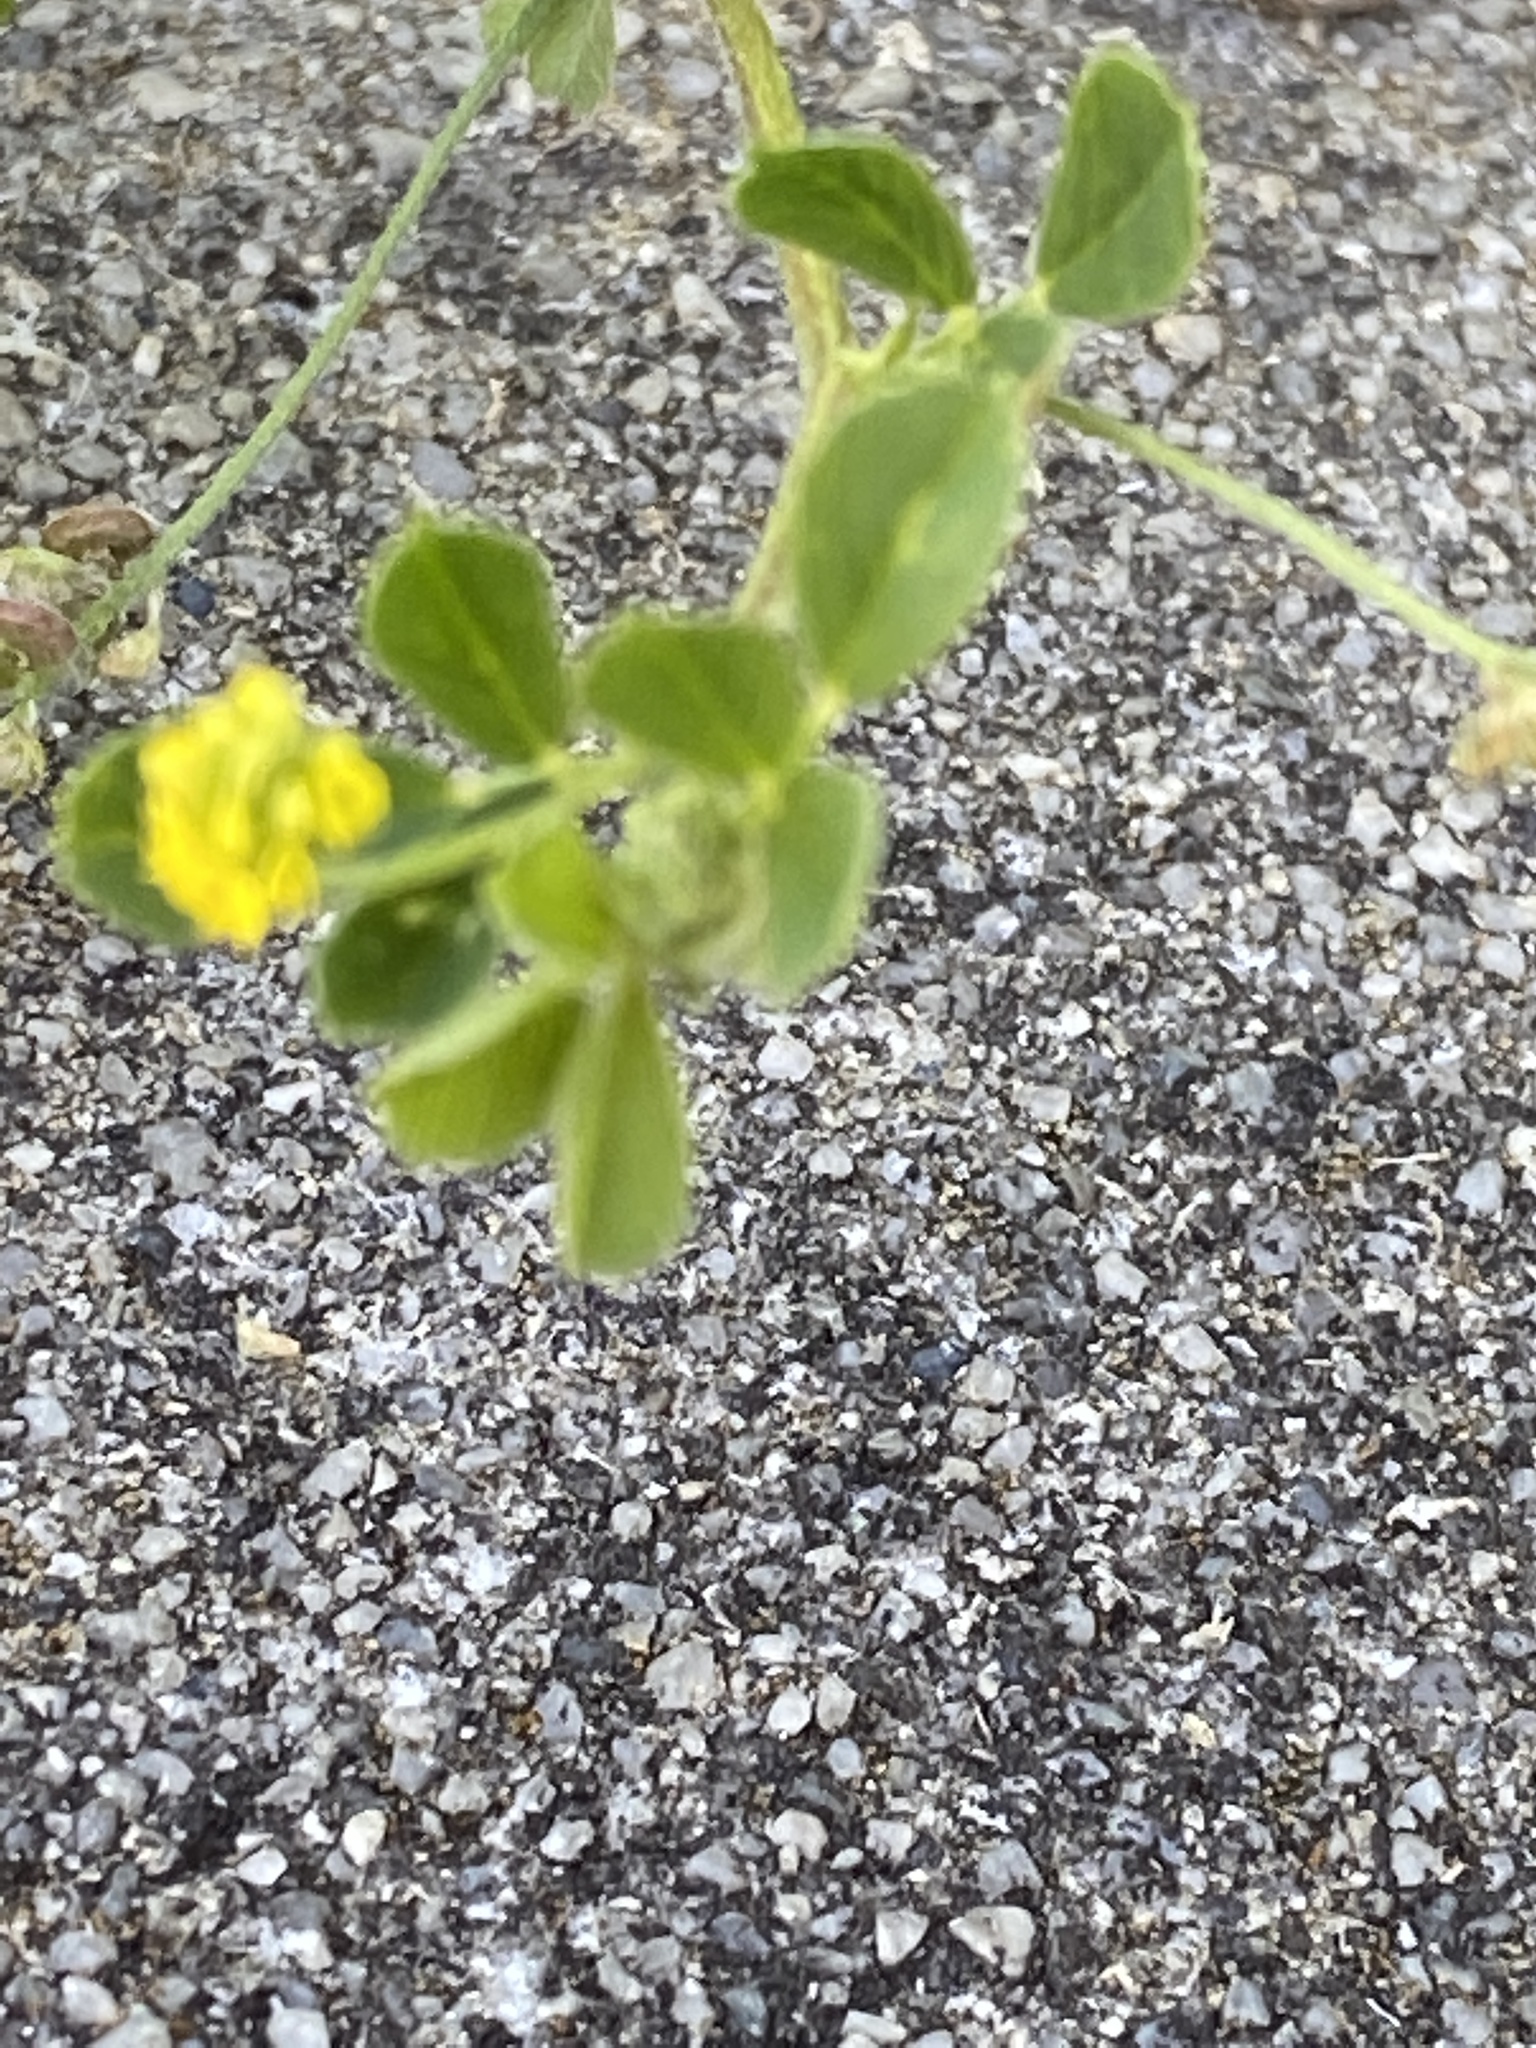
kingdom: Plantae
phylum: Tracheophyta
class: Magnoliopsida
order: Fabales
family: Fabaceae
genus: Medicago
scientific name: Medicago lupulina
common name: Black medick
